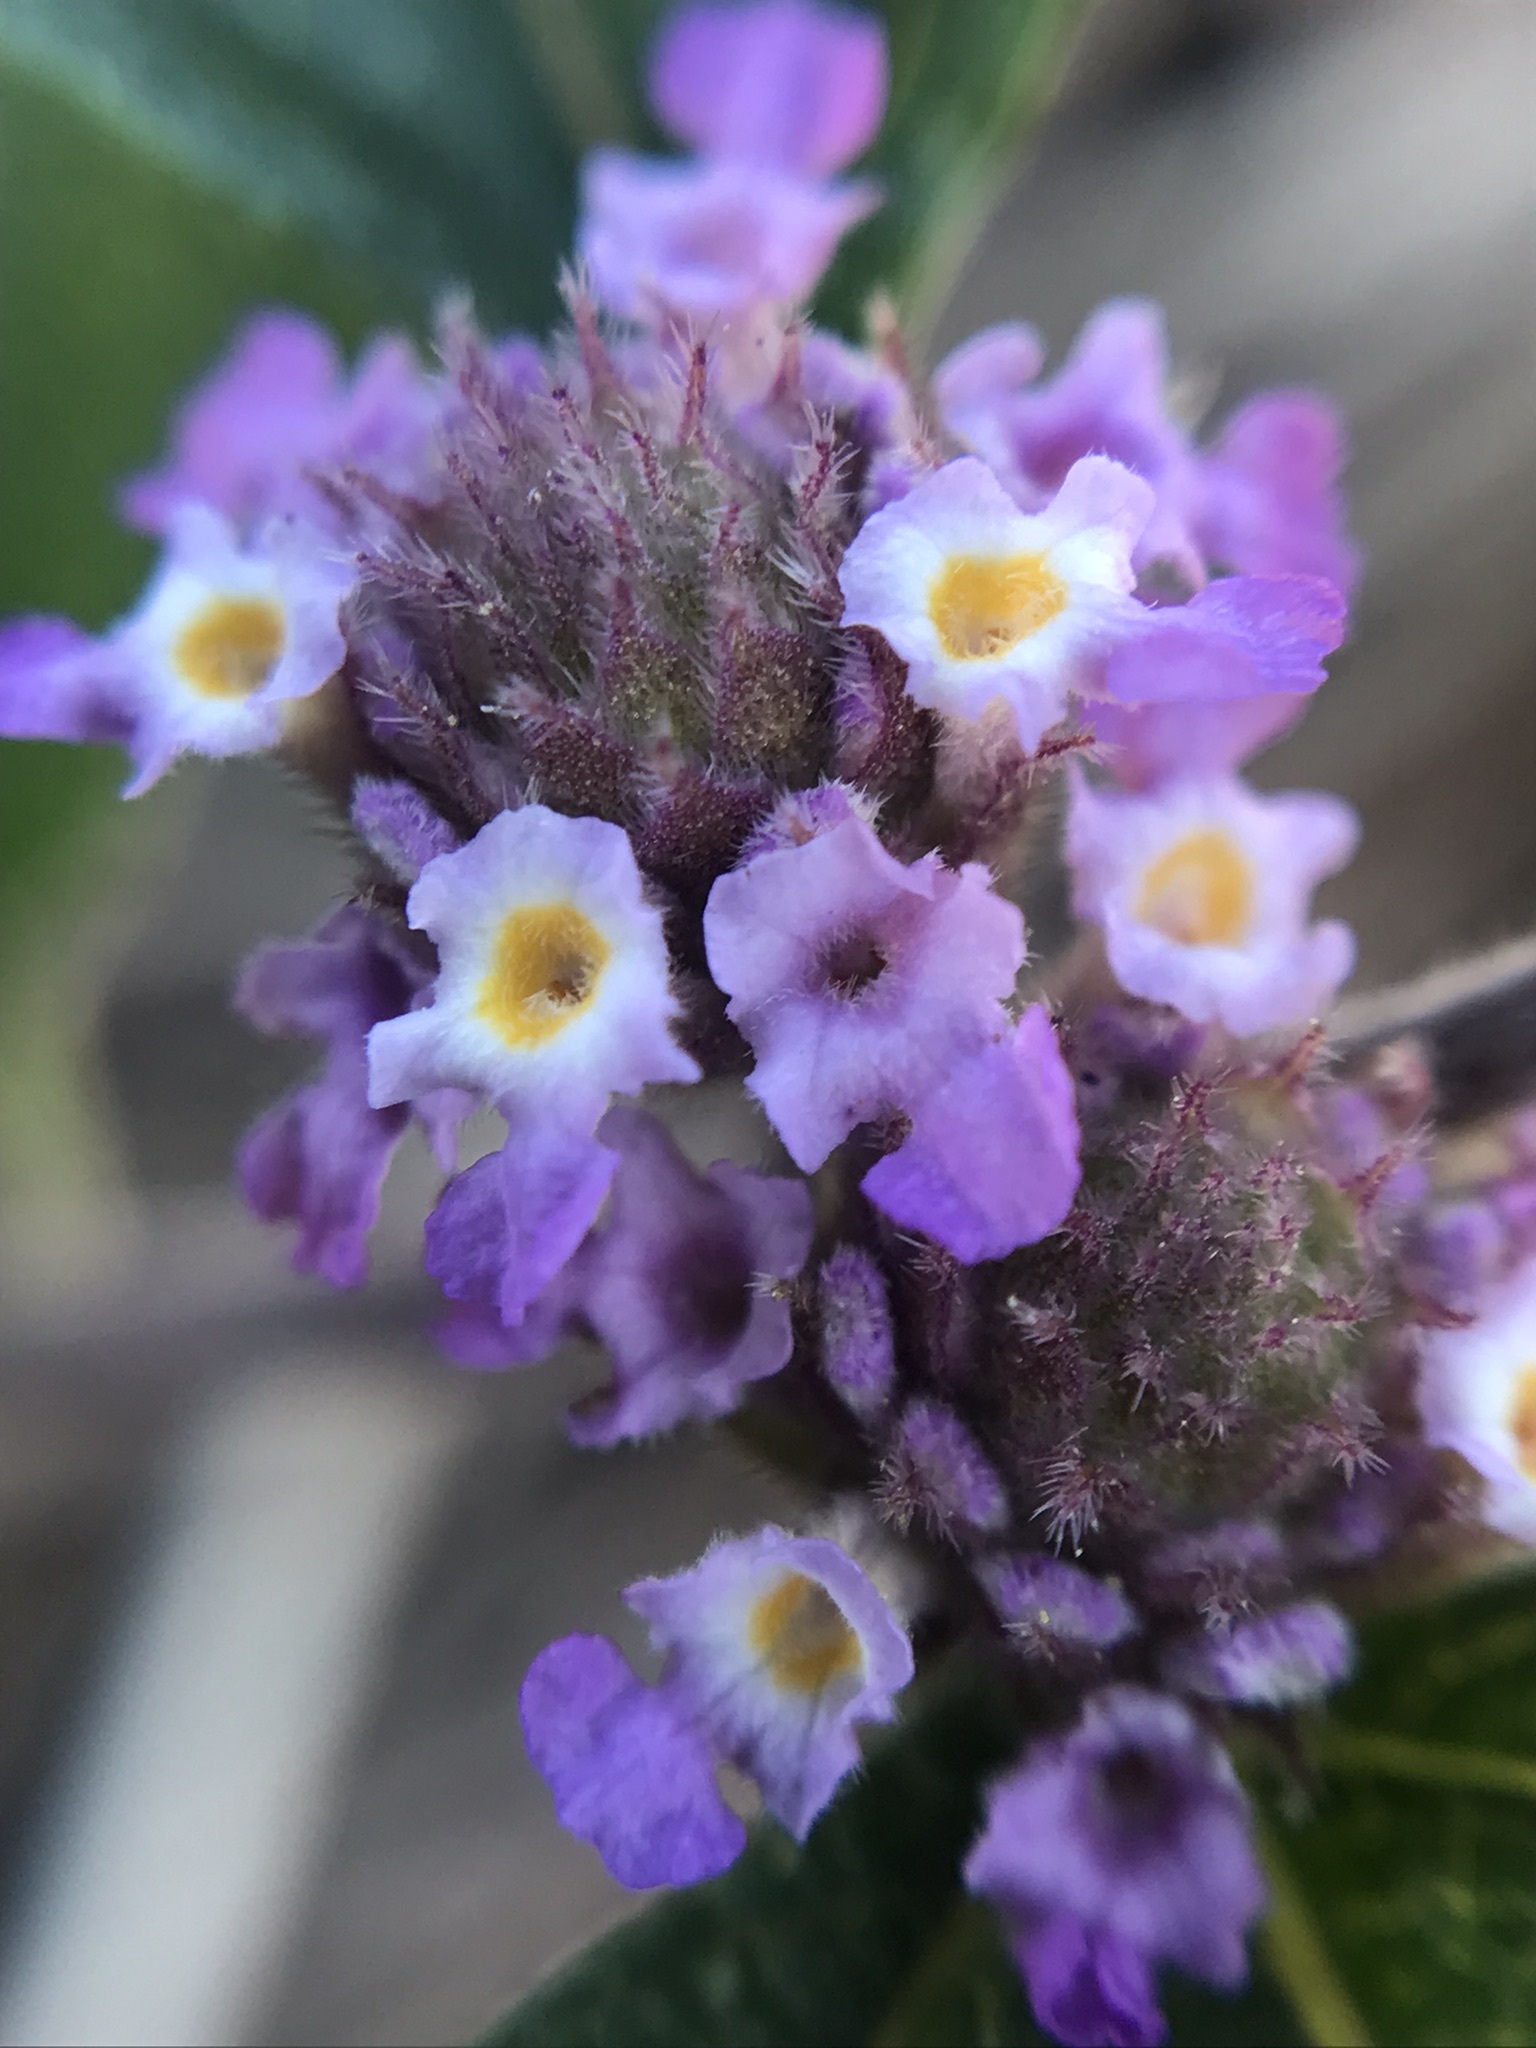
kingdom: Plantae
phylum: Tracheophyta
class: Magnoliopsida
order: Lamiales
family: Verbenaceae
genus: Lippia
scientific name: Lippia alba
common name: Bushy matgrass
